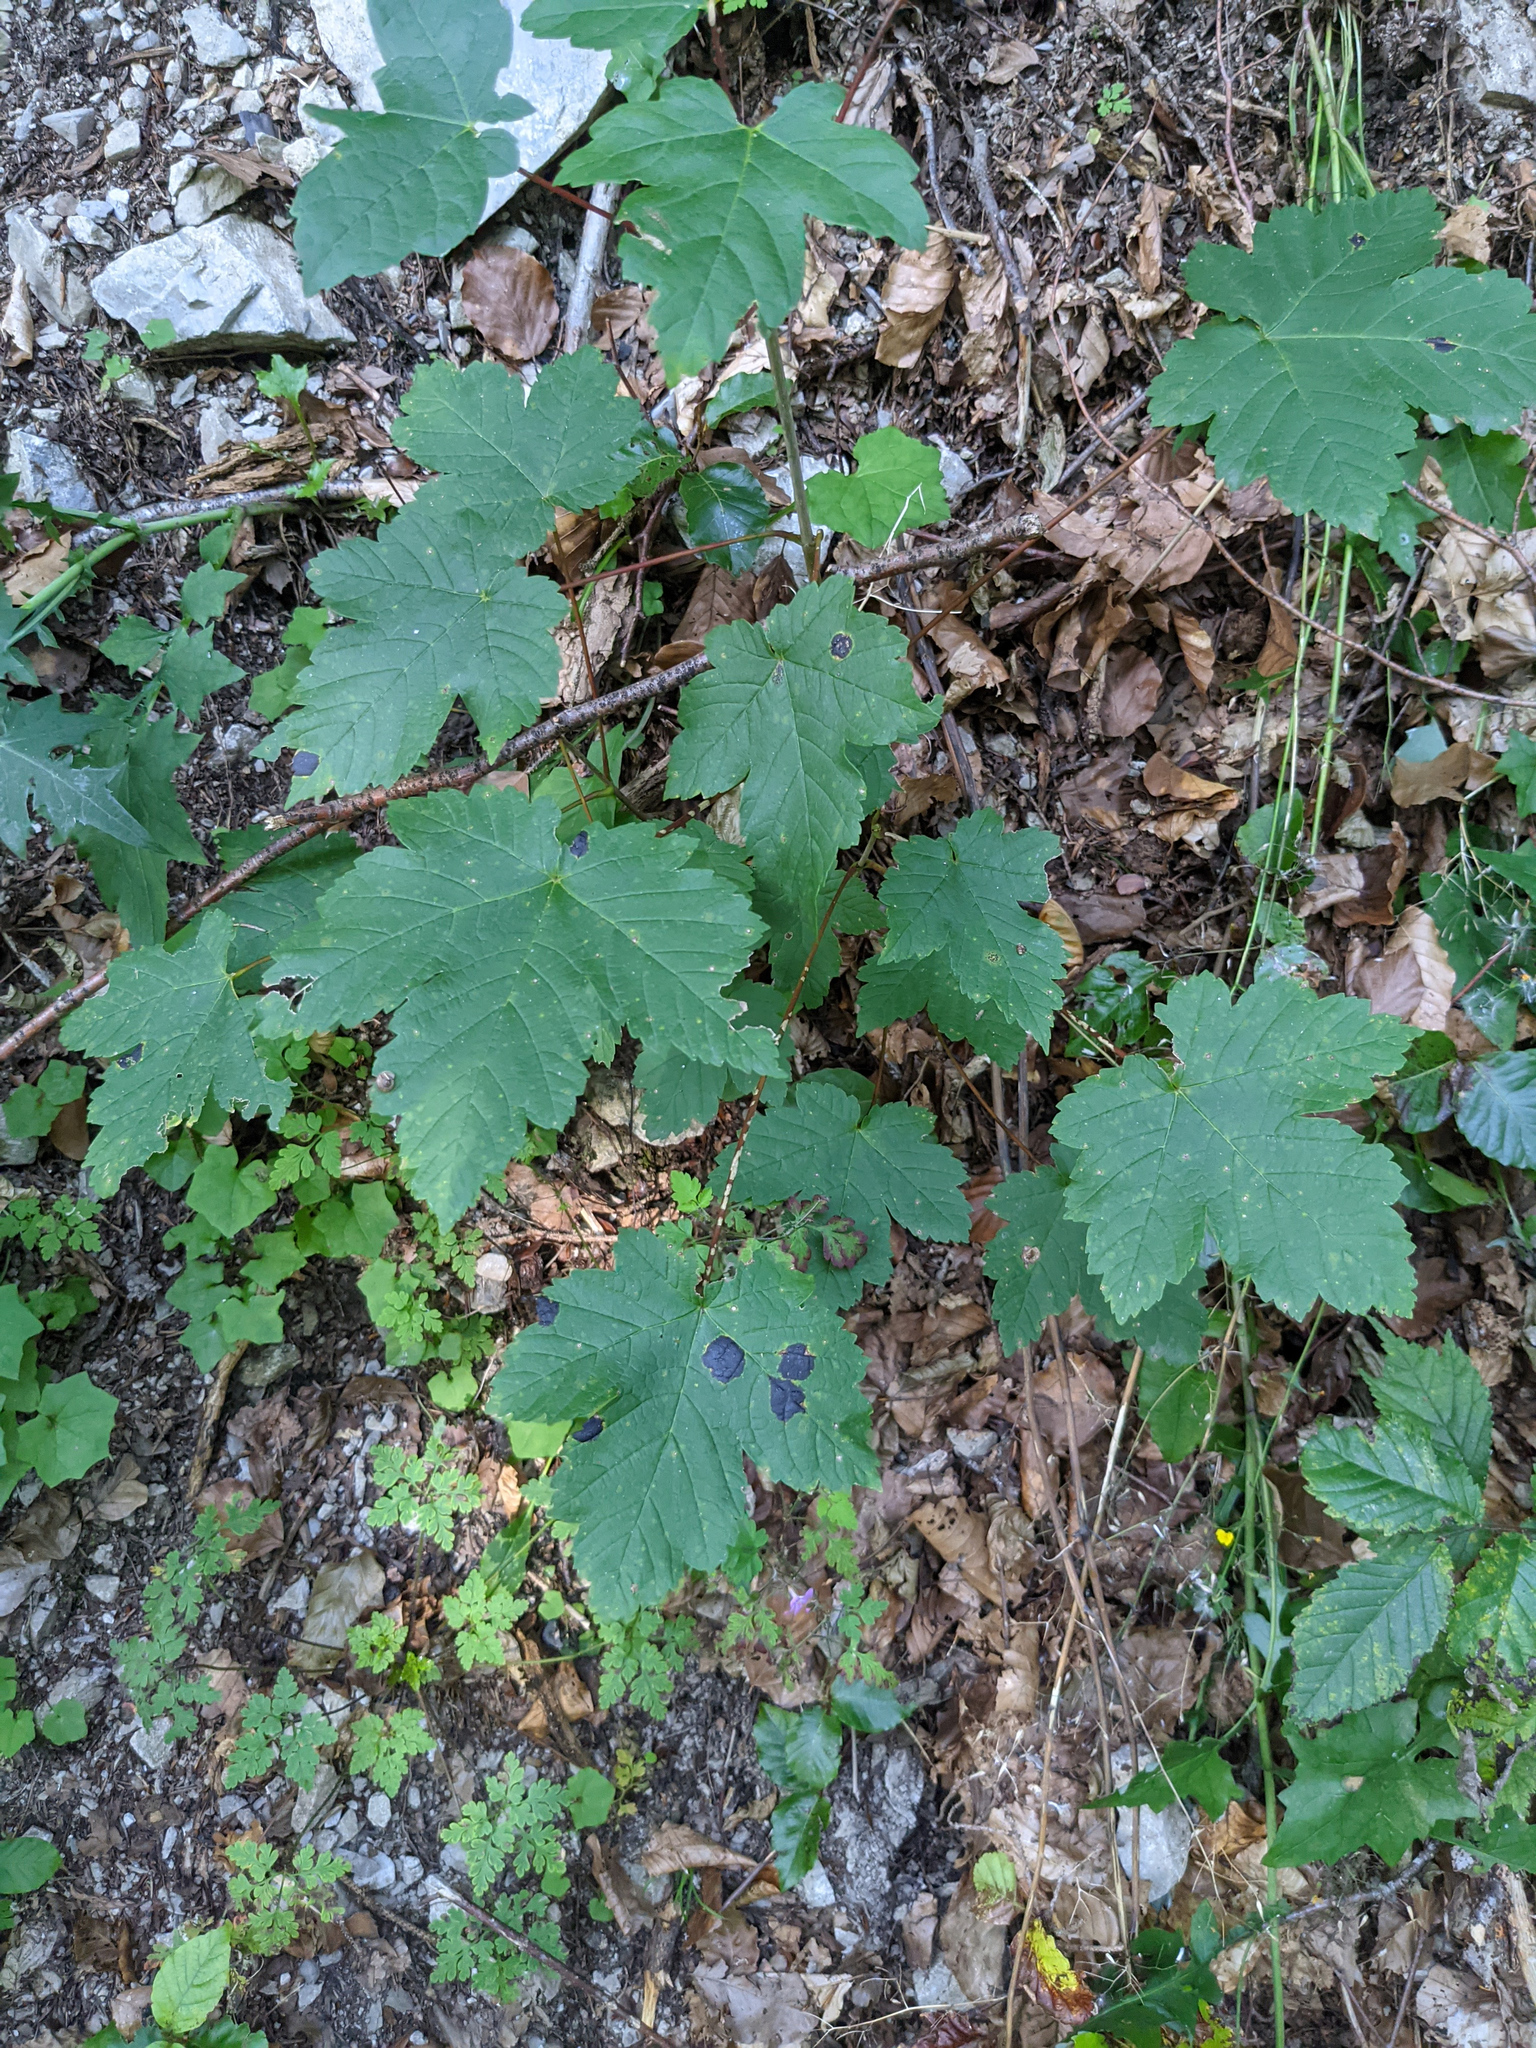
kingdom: Plantae
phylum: Tracheophyta
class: Magnoliopsida
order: Sapindales
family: Sapindaceae
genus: Acer
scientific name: Acer pseudoplatanus
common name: Sycamore
